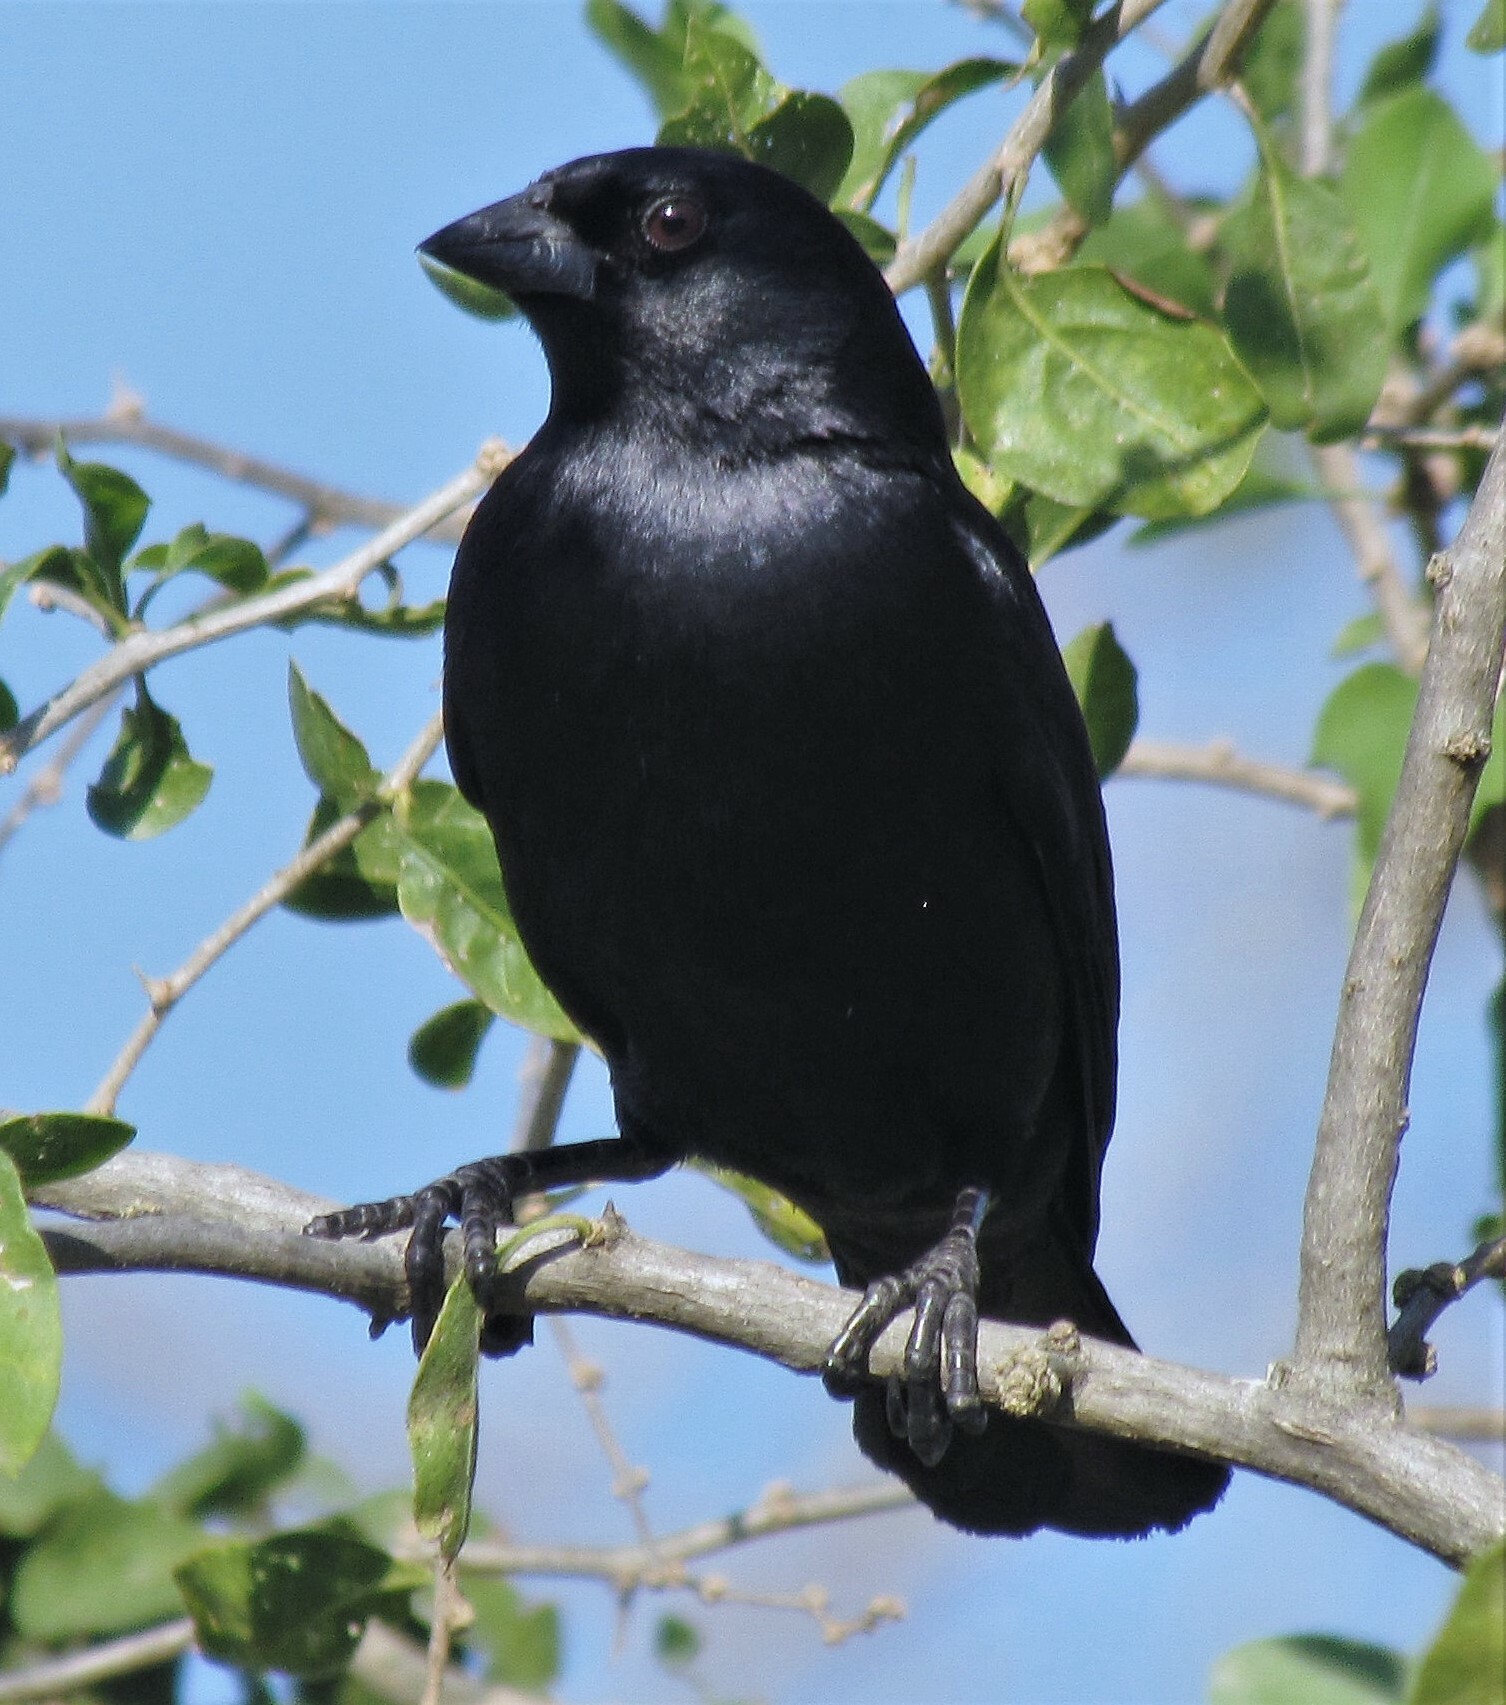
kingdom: Animalia
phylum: Chordata
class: Aves
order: Passeriformes
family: Icteridae
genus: Molothrus
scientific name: Molothrus rufoaxillaris
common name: Screaming cowbird
